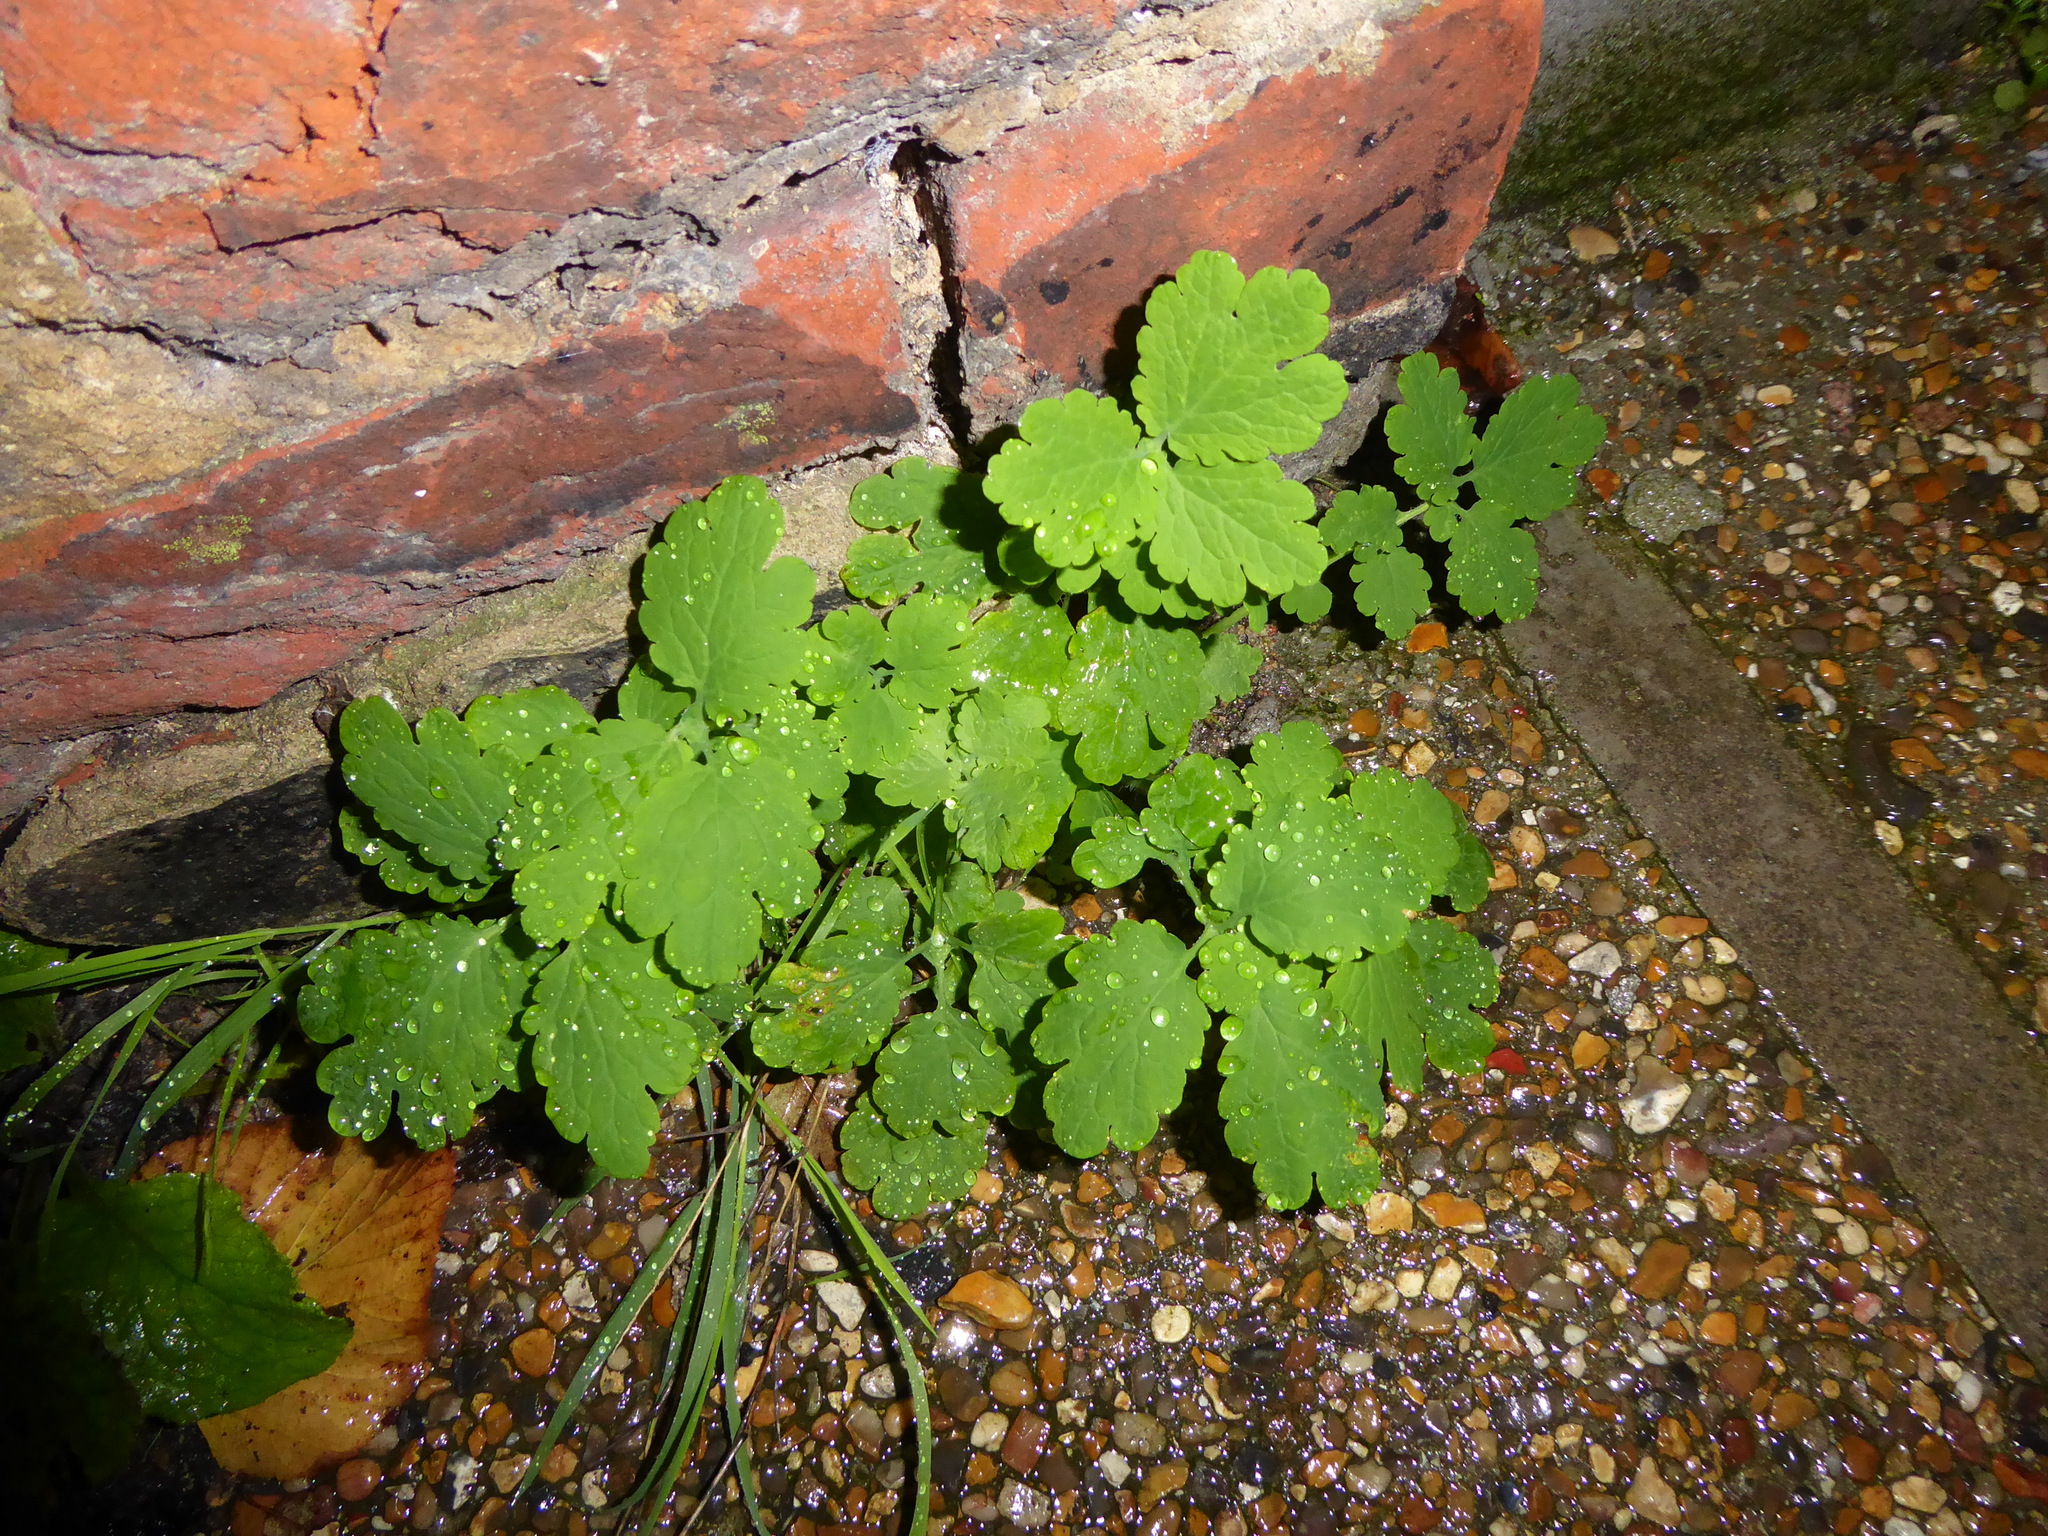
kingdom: Plantae
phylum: Tracheophyta
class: Magnoliopsida
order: Ranunculales
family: Papaveraceae
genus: Chelidonium
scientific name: Chelidonium majus
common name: Greater celandine
